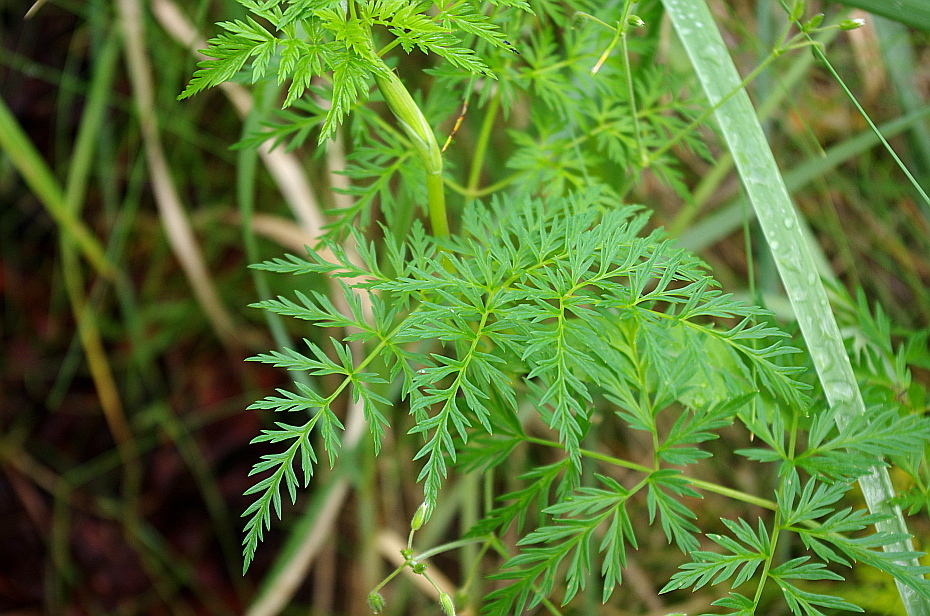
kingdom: Plantae
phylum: Tracheophyta
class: Magnoliopsida
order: Apiales
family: Apiaceae
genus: Conioselinum
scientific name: Conioselinum tataricum
